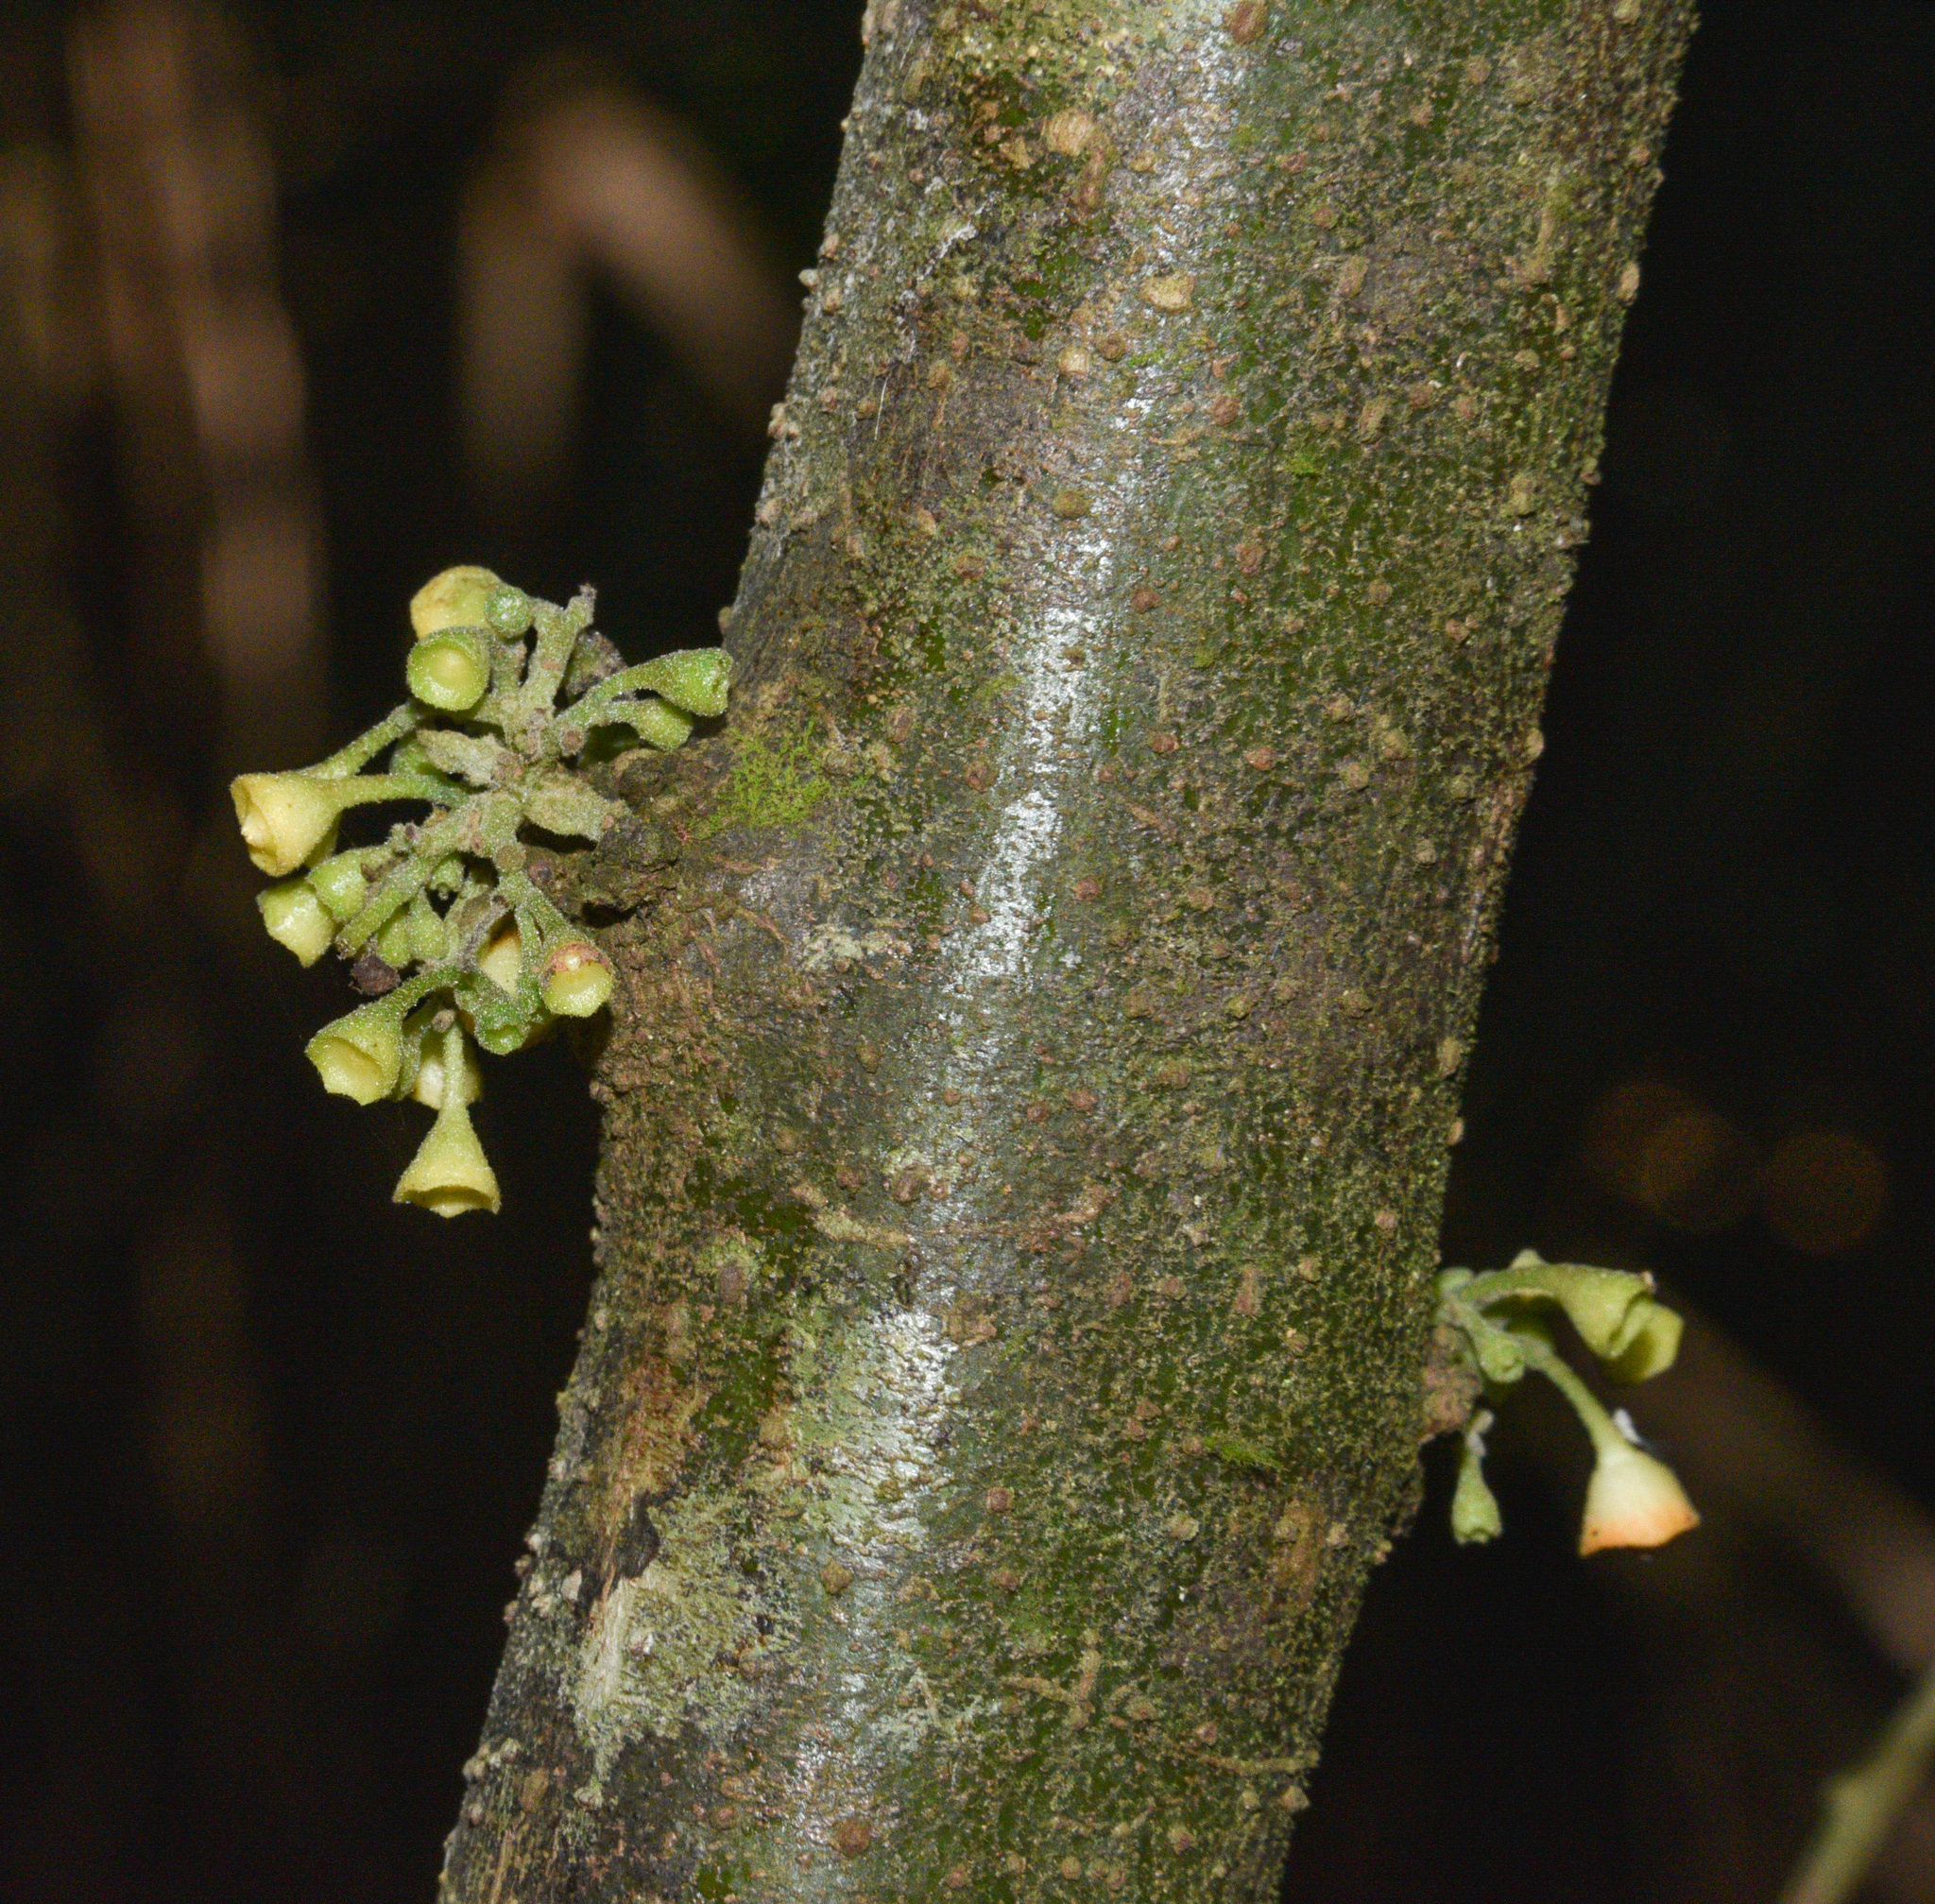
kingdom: Plantae
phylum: Tracheophyta
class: Magnoliopsida
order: Laurales
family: Siparunaceae
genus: Siparuna
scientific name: Siparuna gesnerioides
